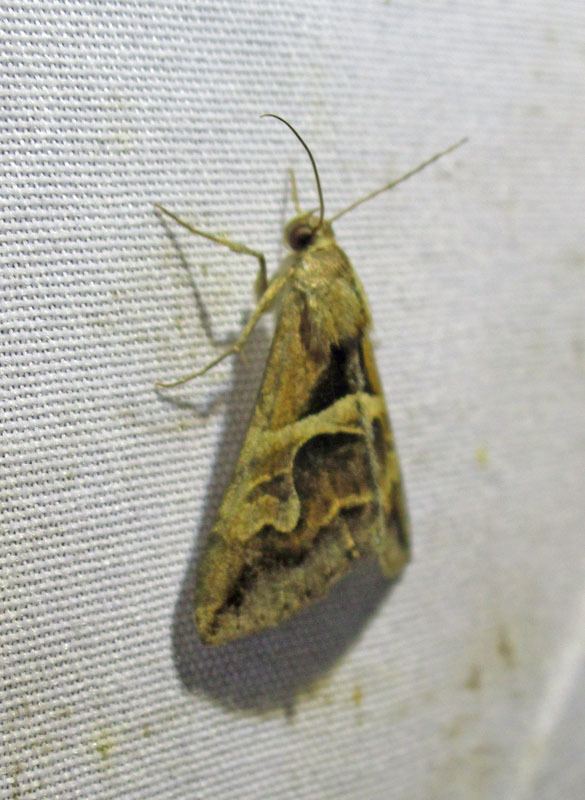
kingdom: Animalia
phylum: Arthropoda
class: Insecta
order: Lepidoptera
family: Erebidae
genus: Melipotis
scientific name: Melipotis cellaris
